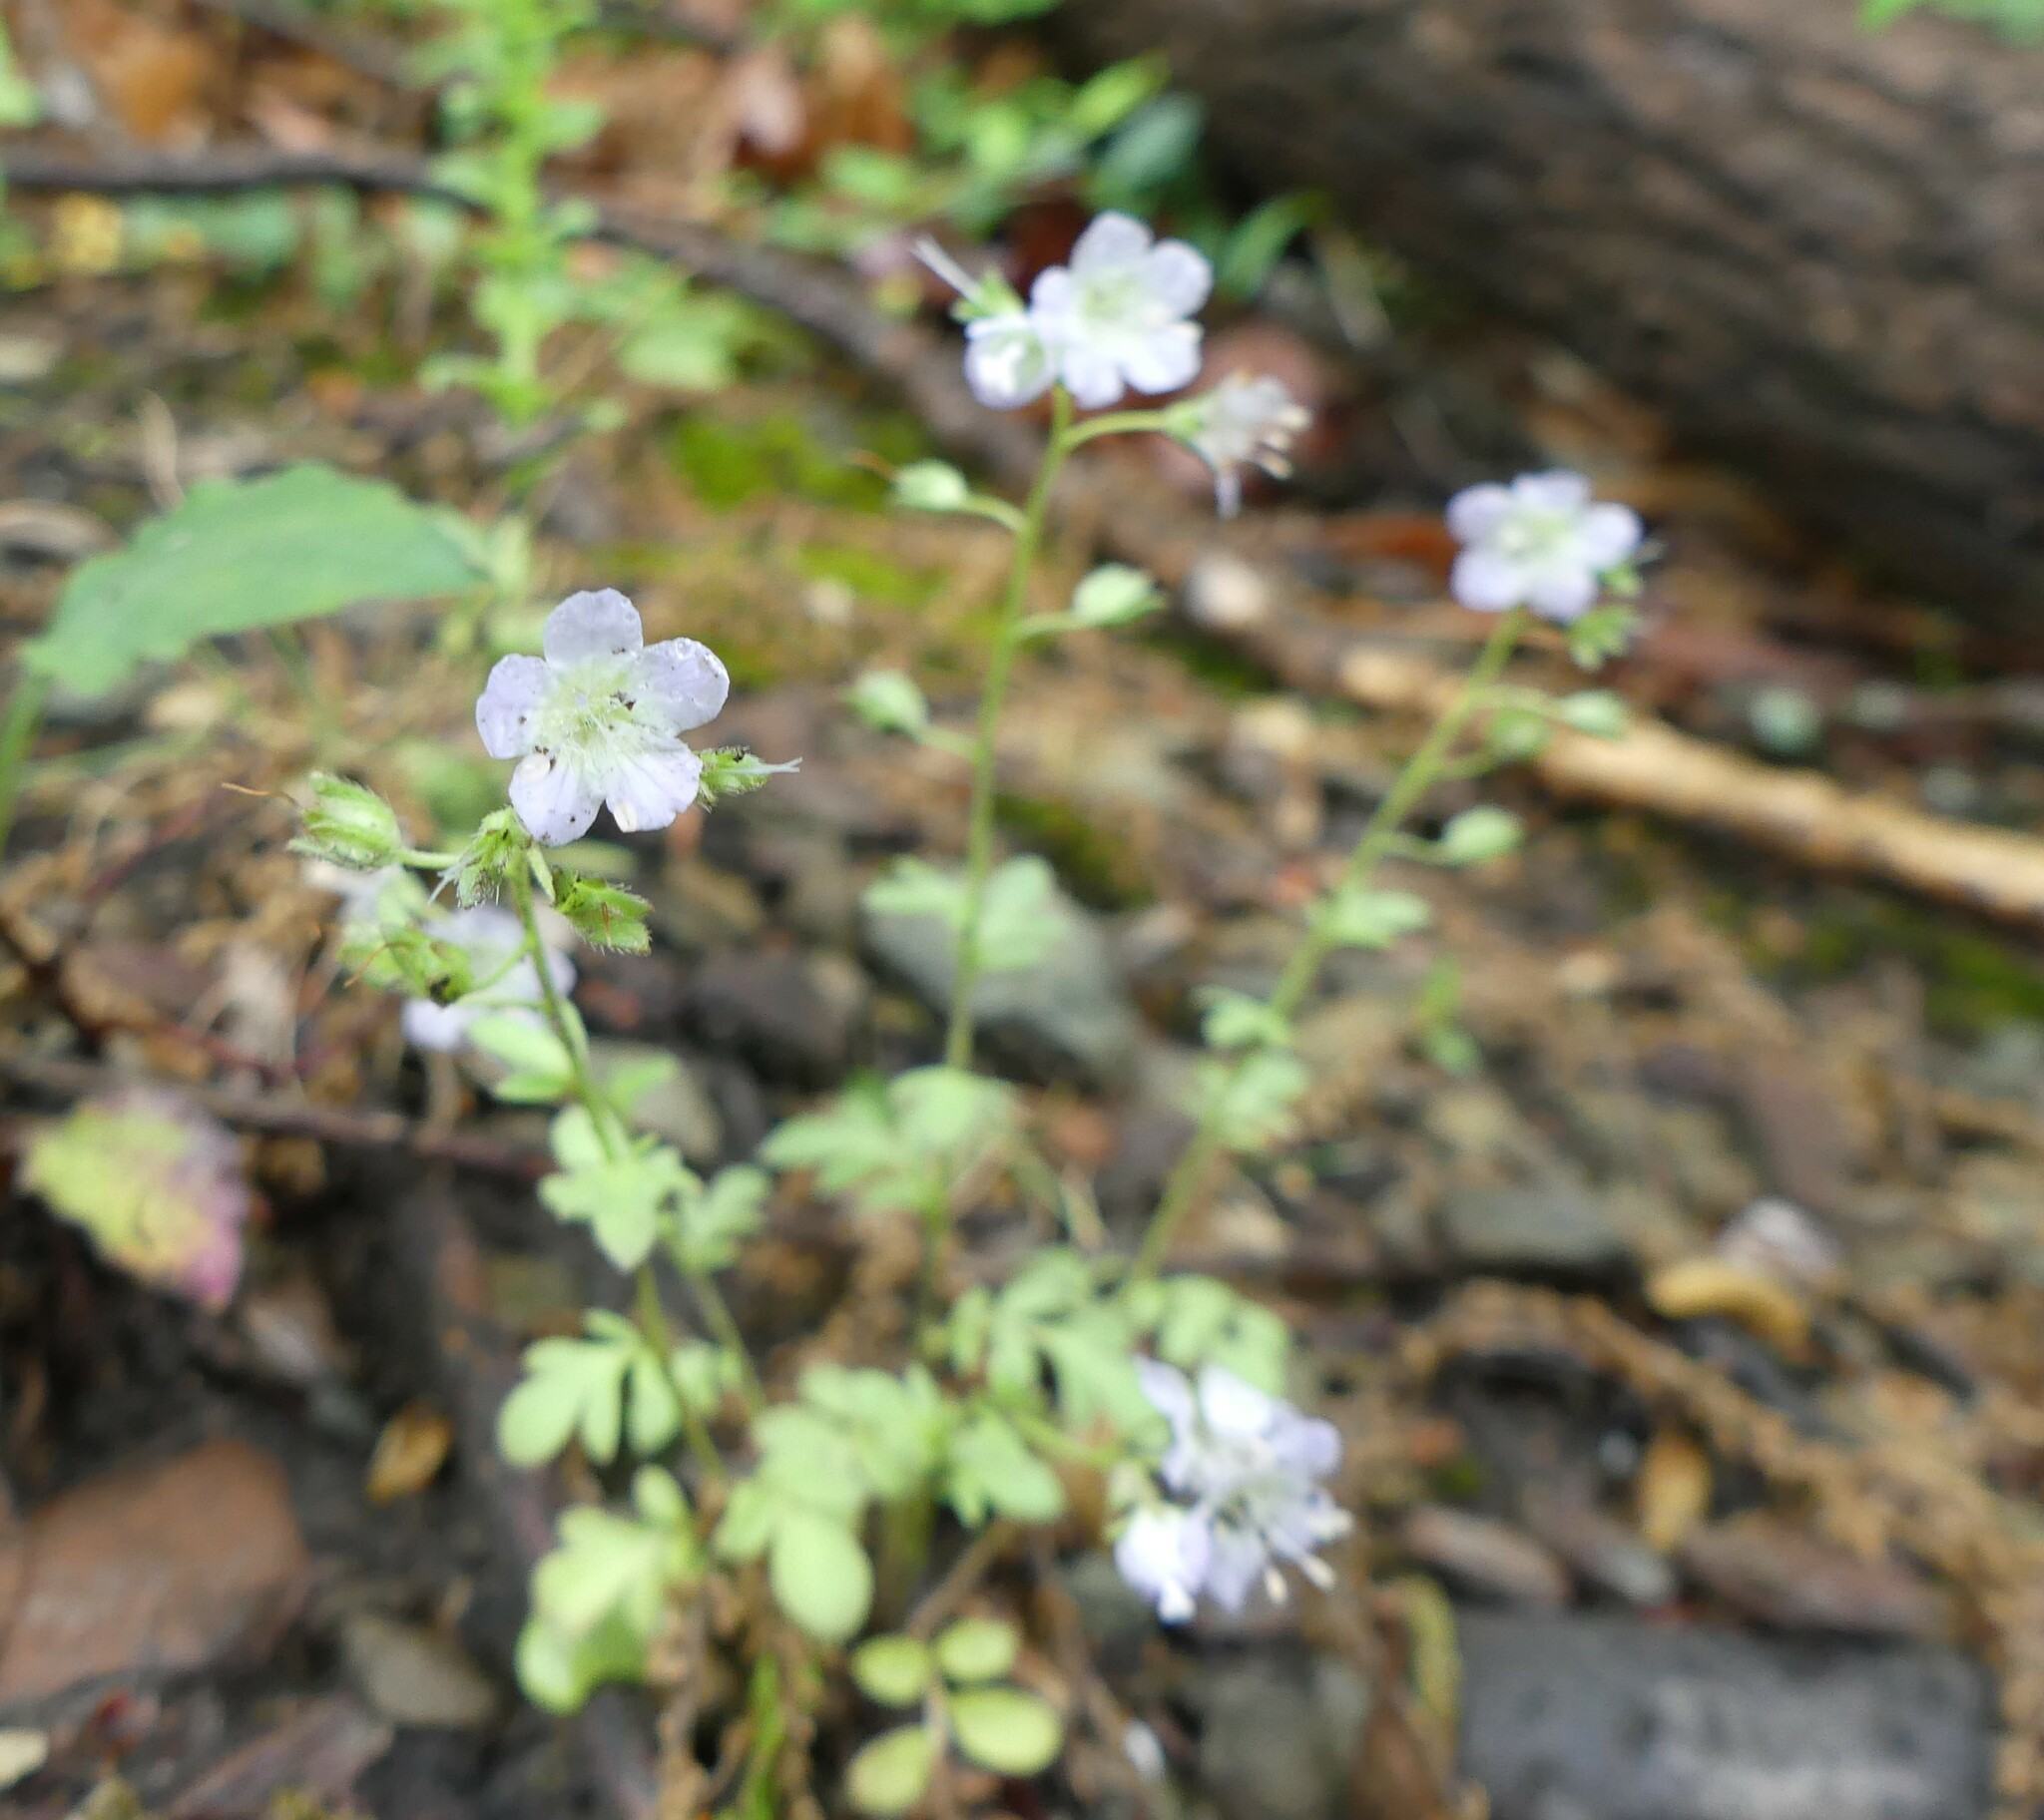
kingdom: Plantae
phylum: Tracheophyta
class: Magnoliopsida
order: Boraginales
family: Hydrophyllaceae
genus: Phacelia
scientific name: Phacelia dubia
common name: Appalachian phacelia
